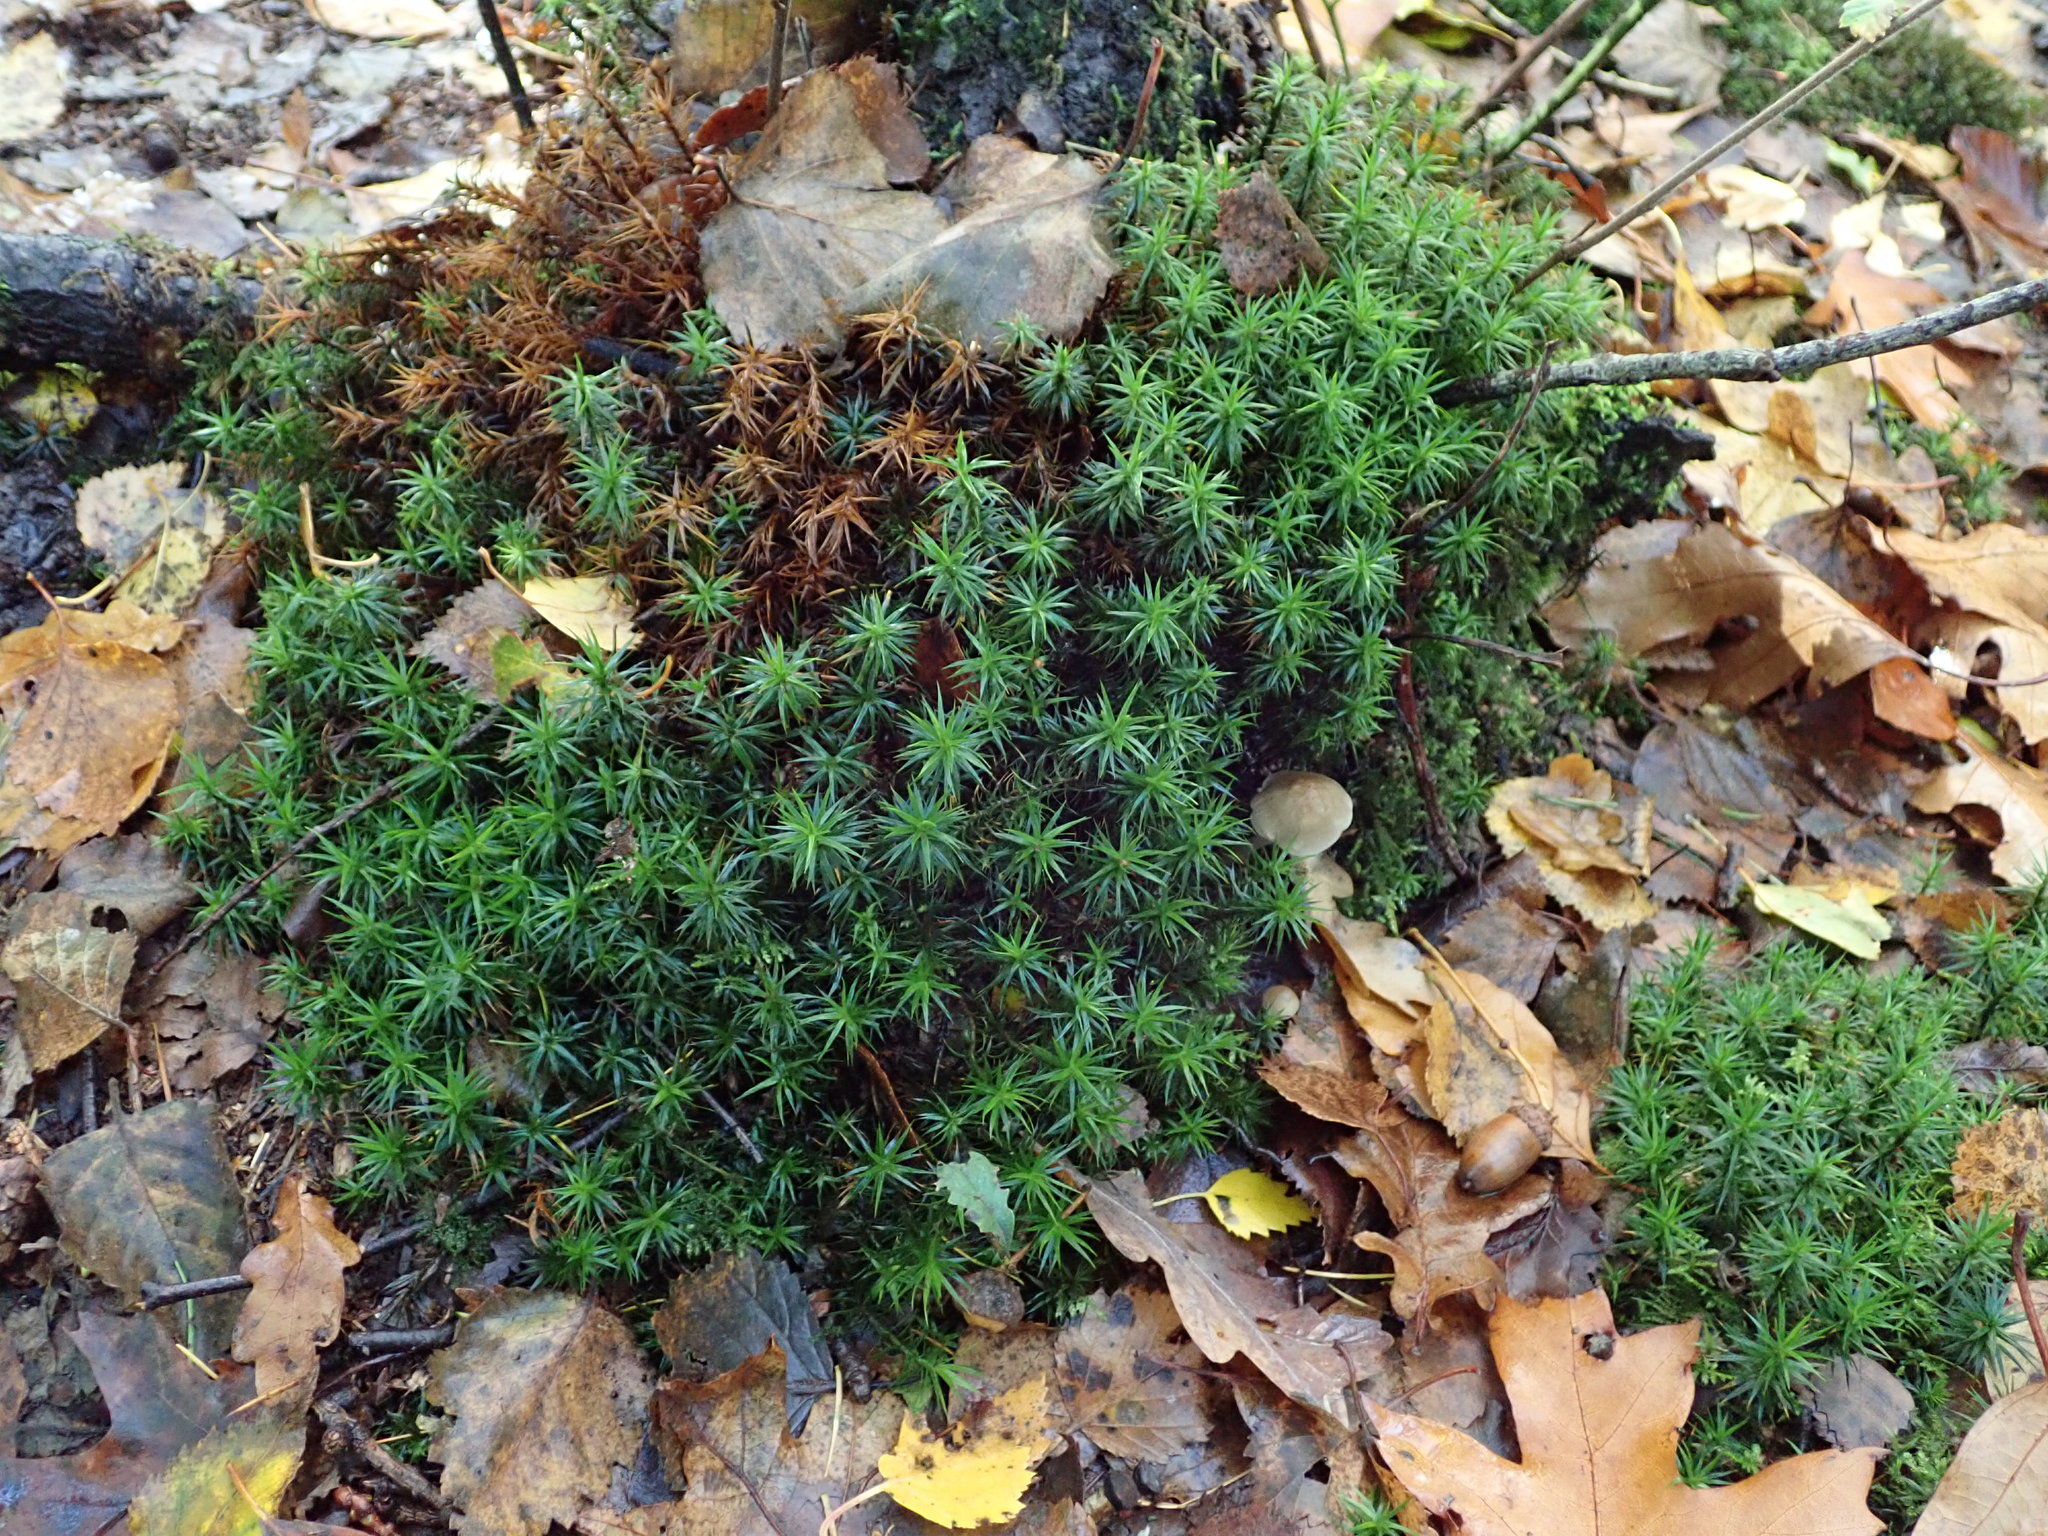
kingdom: Plantae
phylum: Bryophyta
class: Polytrichopsida
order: Polytrichales
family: Polytrichaceae
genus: Polytrichum
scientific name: Polytrichum formosum
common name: Bank haircap moss
